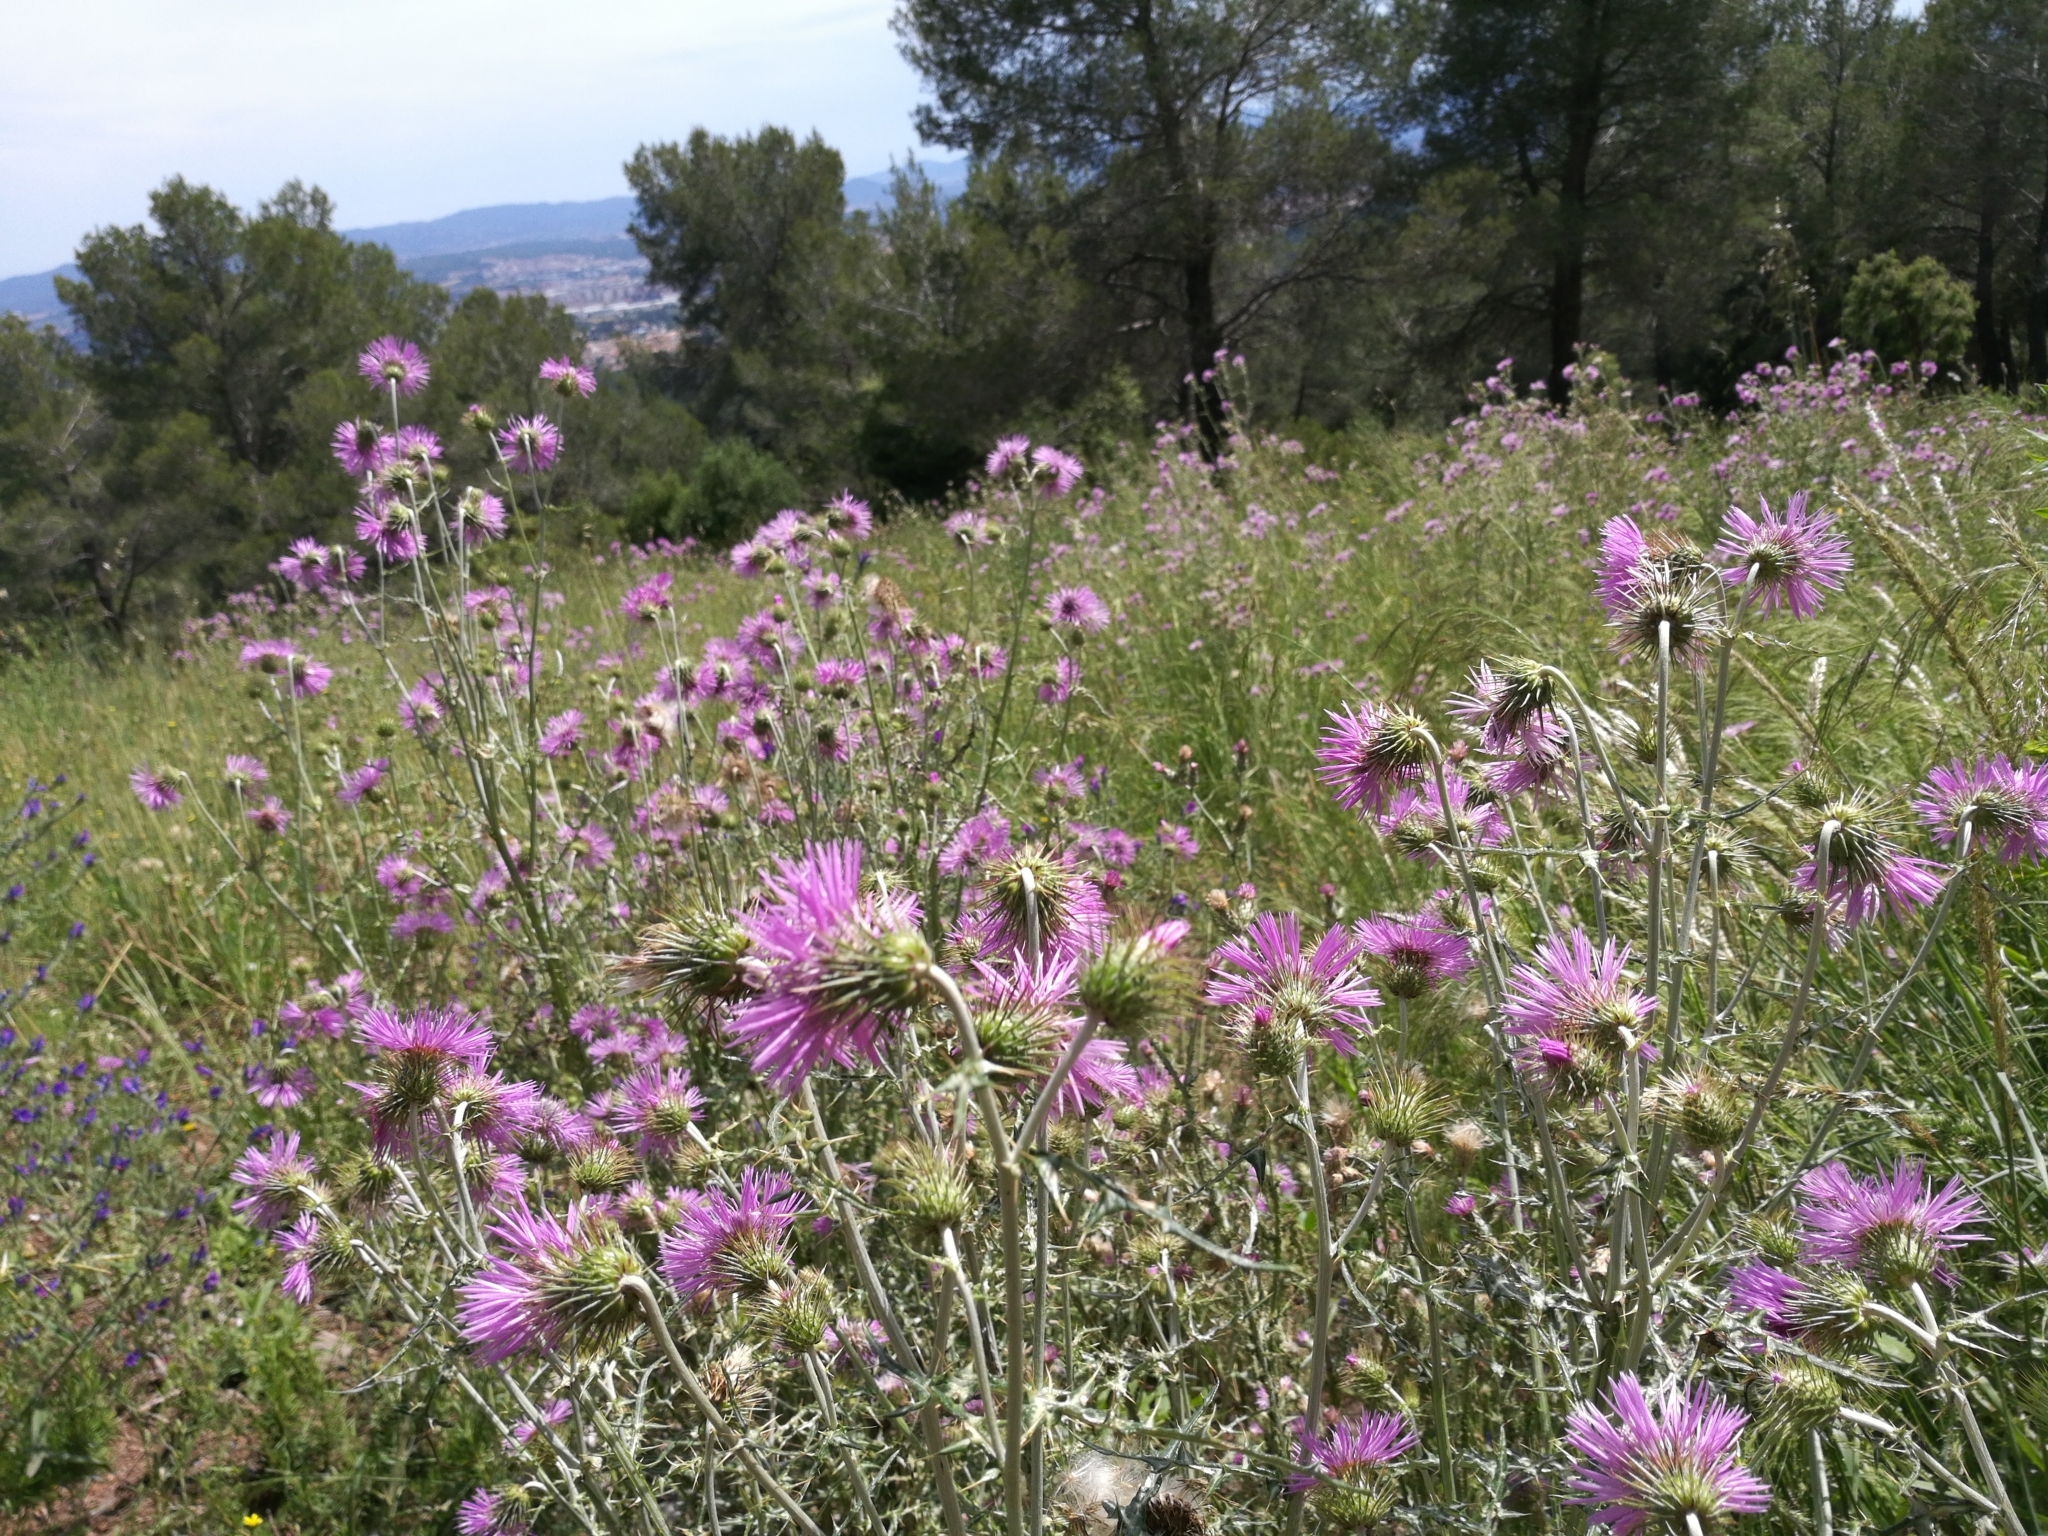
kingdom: Plantae
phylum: Tracheophyta
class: Magnoliopsida
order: Asterales
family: Asteraceae
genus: Galactites
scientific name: Galactites tomentosa
